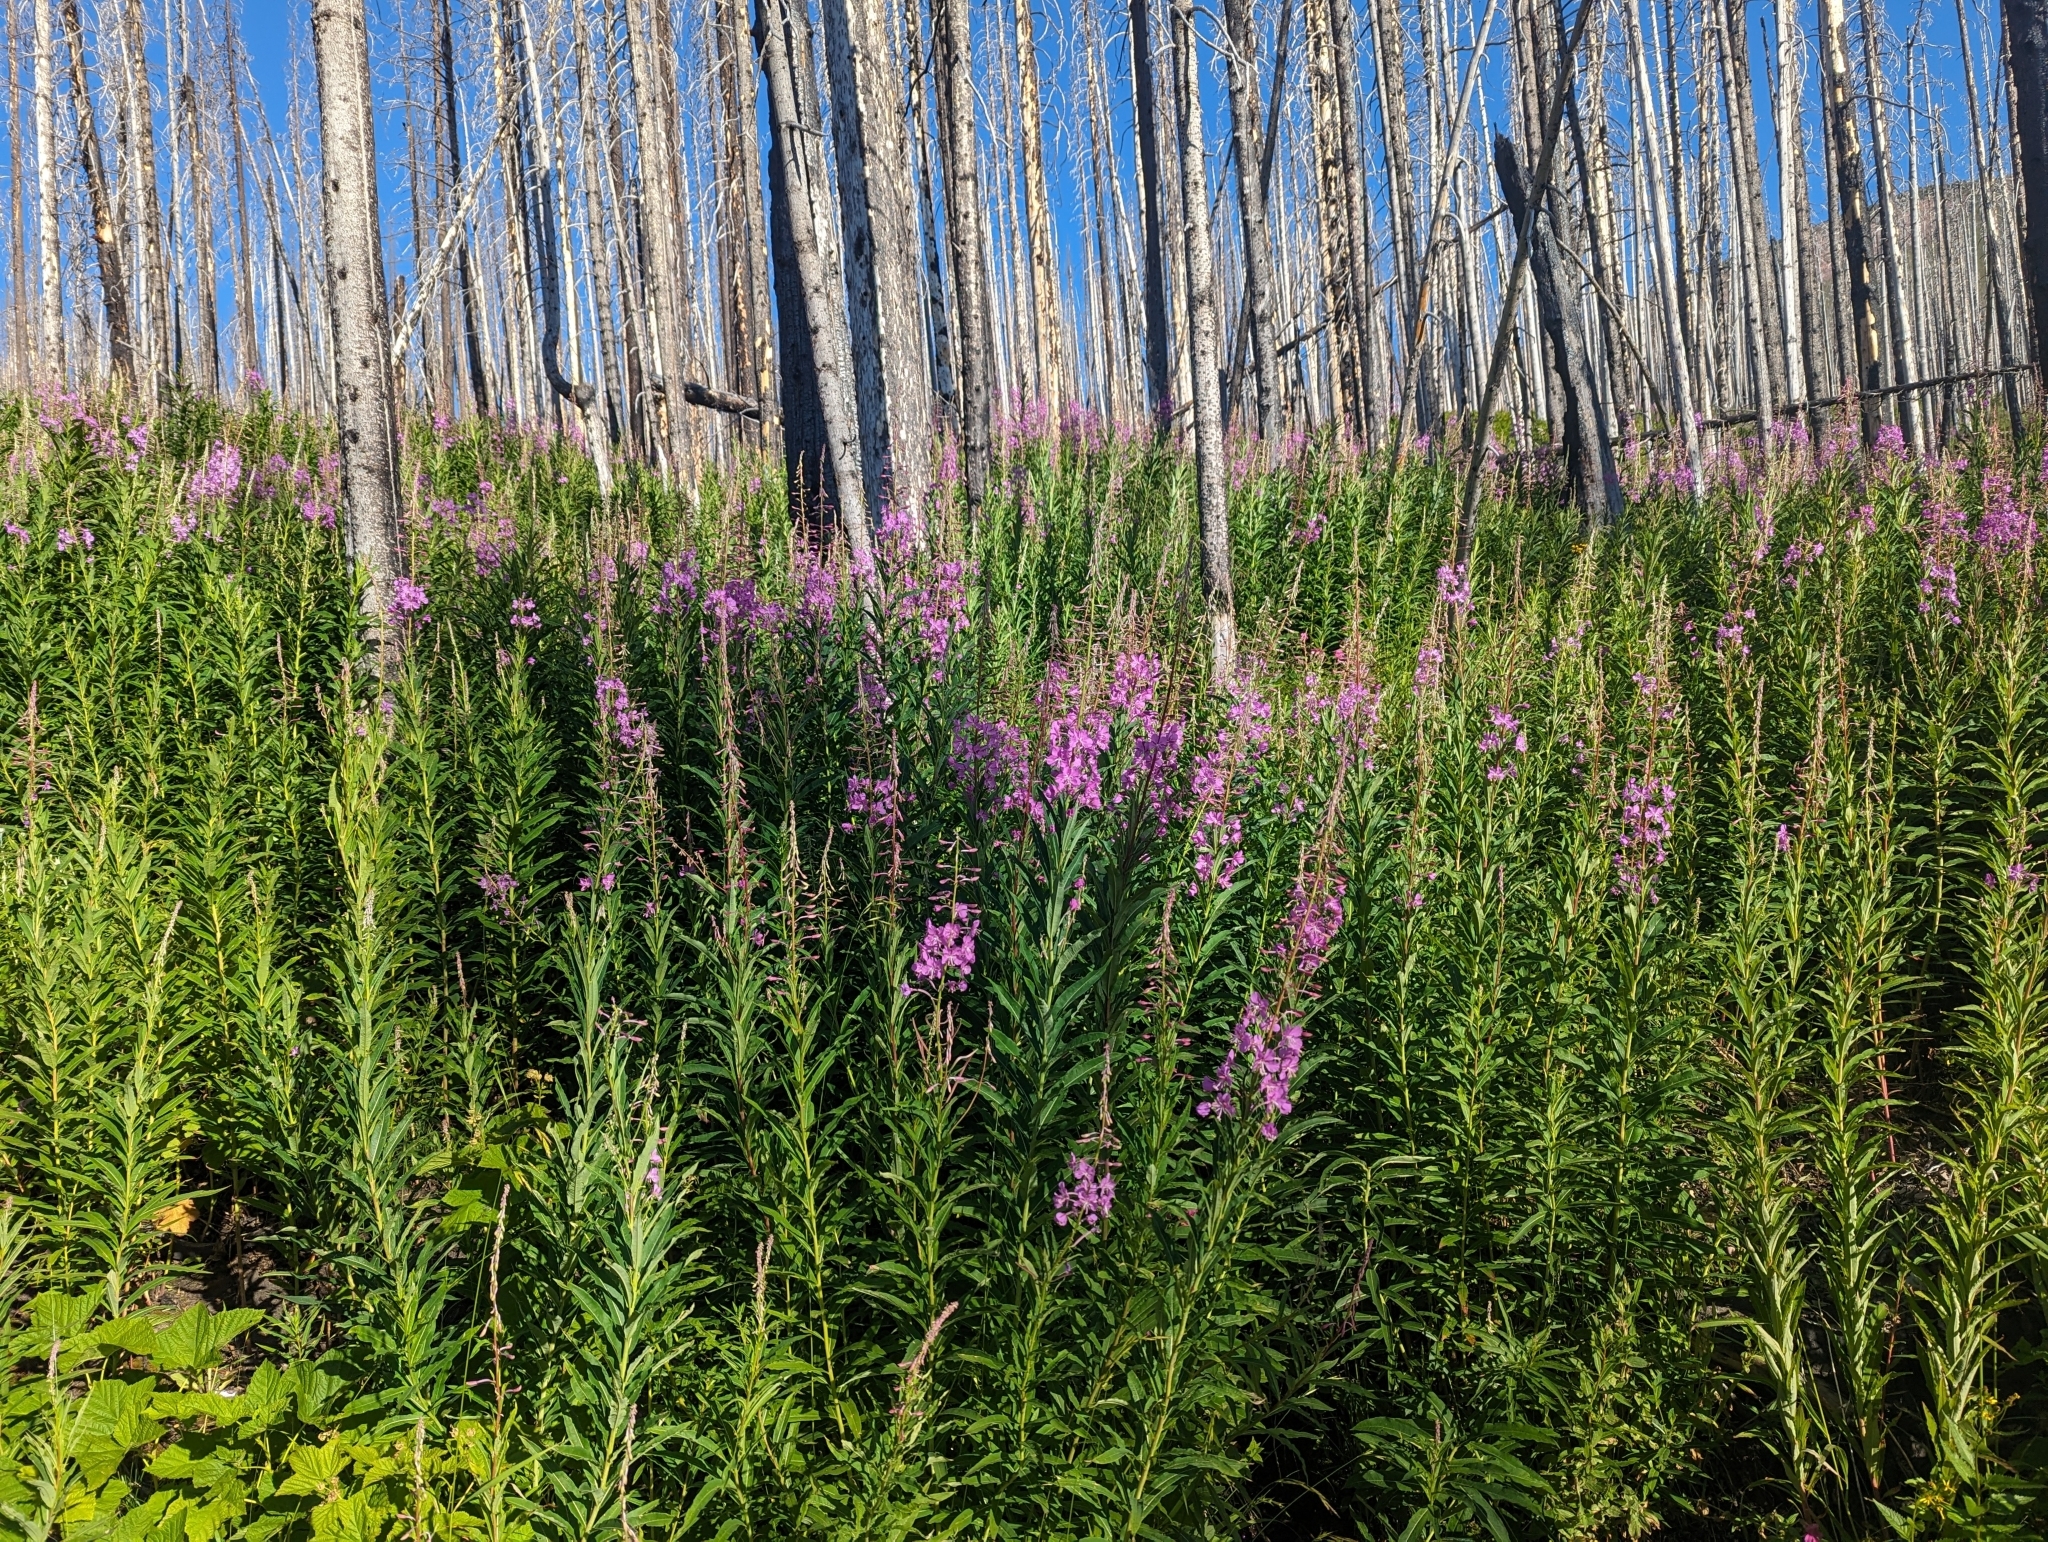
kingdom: Plantae
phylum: Tracheophyta
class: Magnoliopsida
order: Myrtales
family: Onagraceae
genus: Chamaenerion
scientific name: Chamaenerion angustifolium
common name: Fireweed
